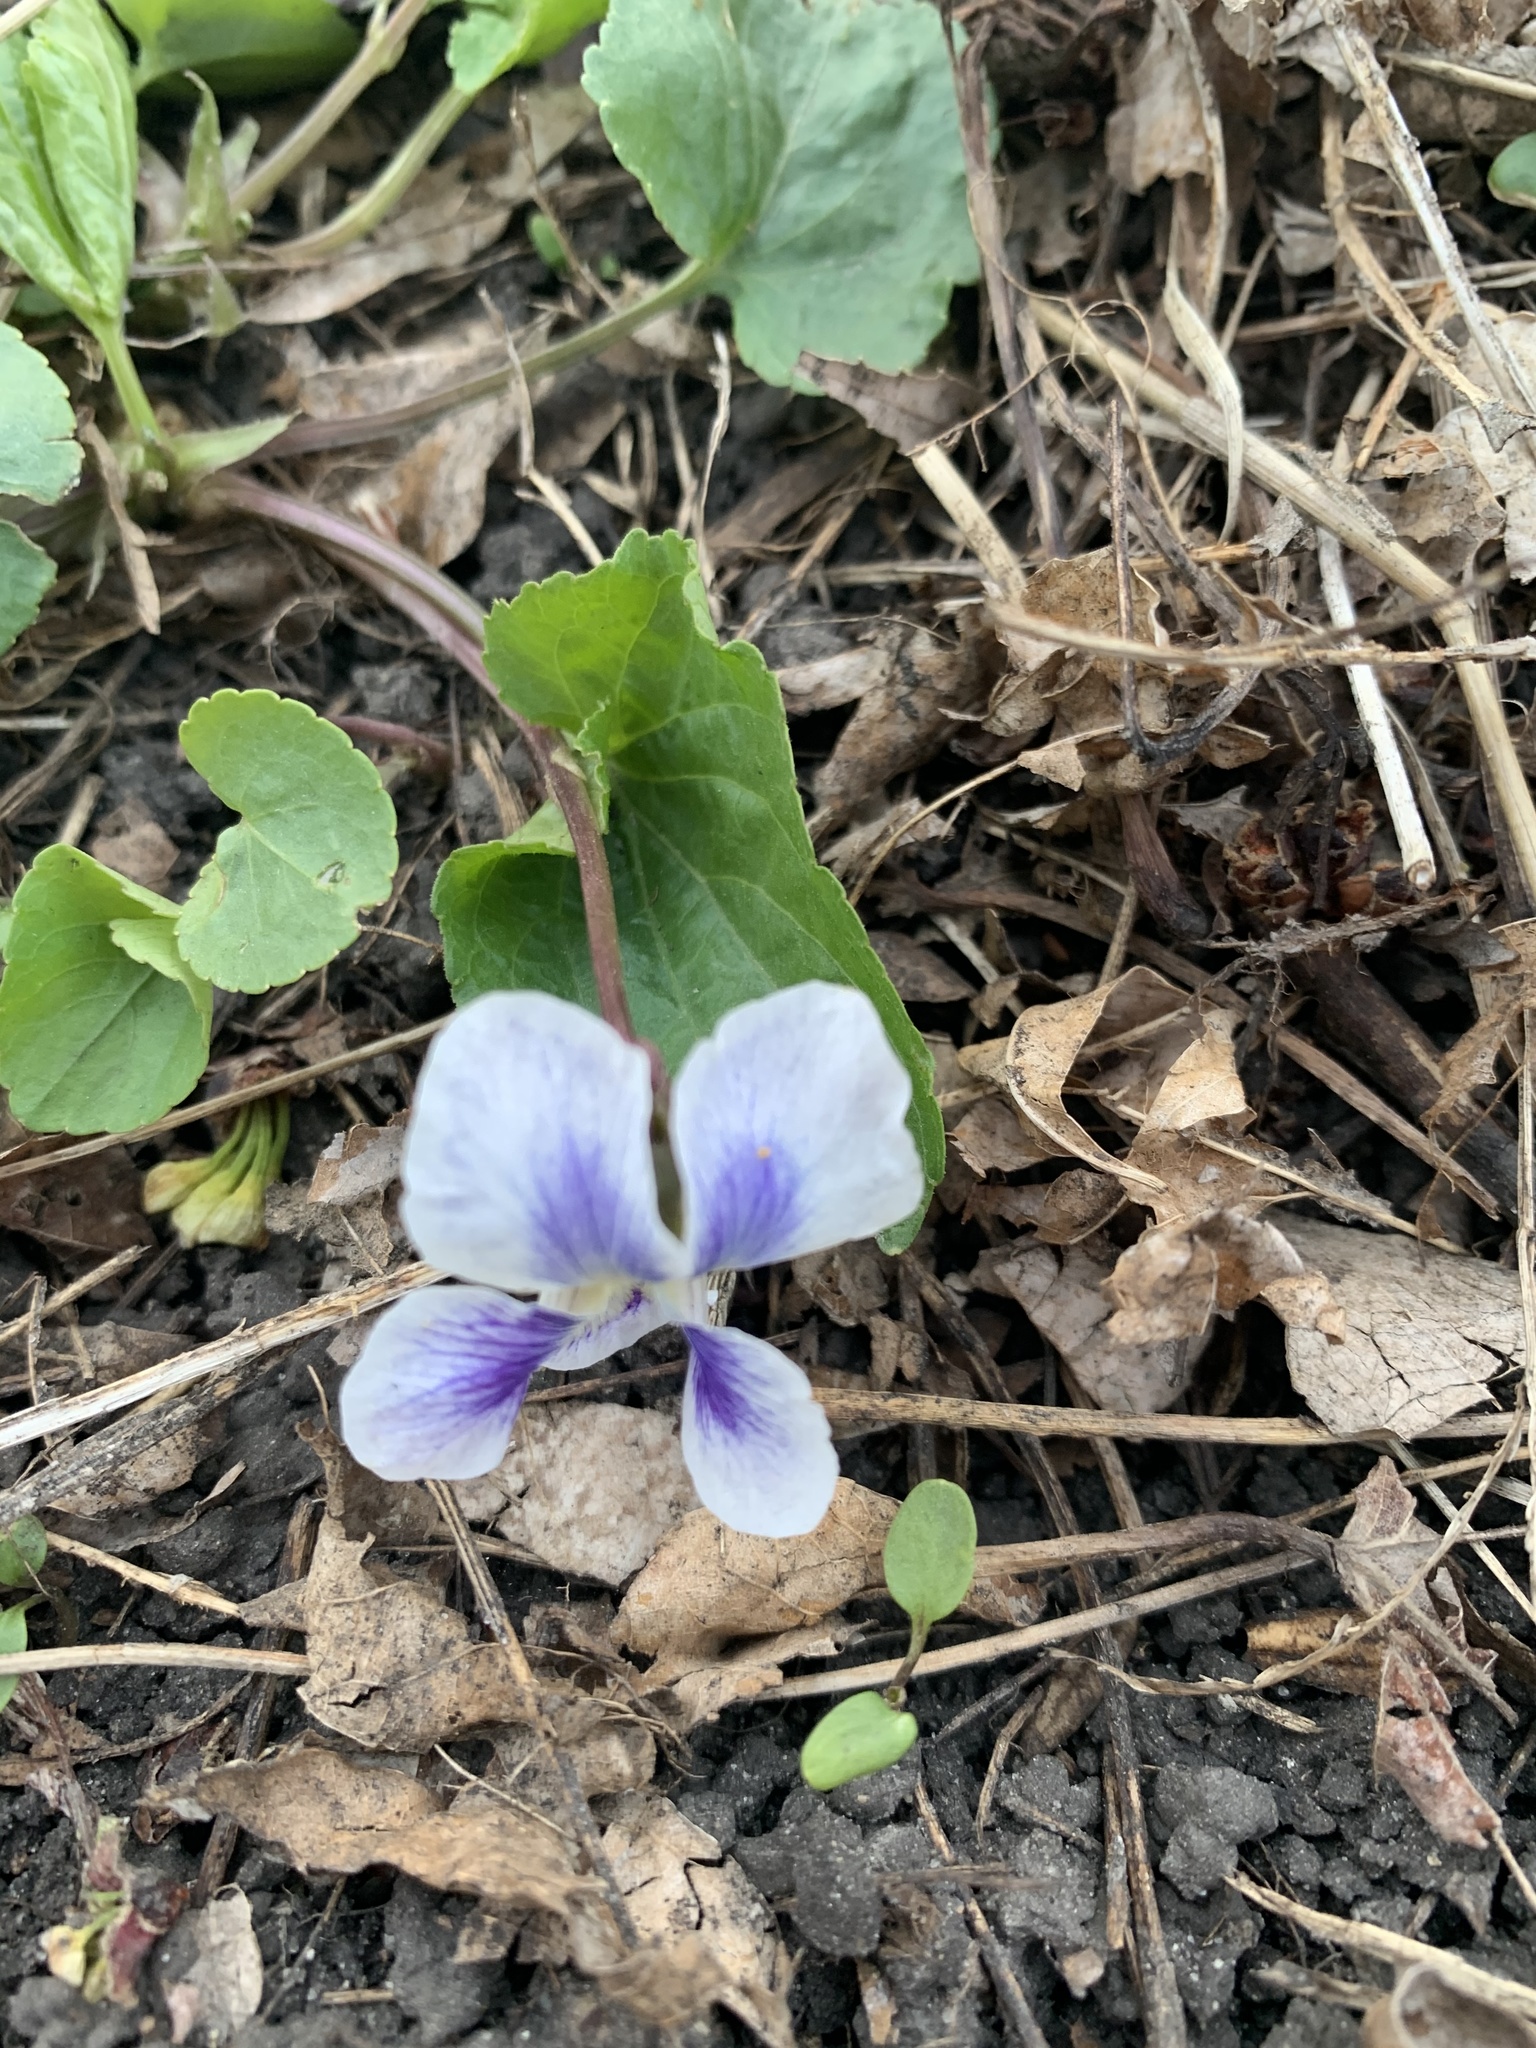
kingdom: Plantae
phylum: Tracheophyta
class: Magnoliopsida
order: Malpighiales
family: Violaceae
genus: Viola
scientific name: Viola sororia
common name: Dooryard violet
